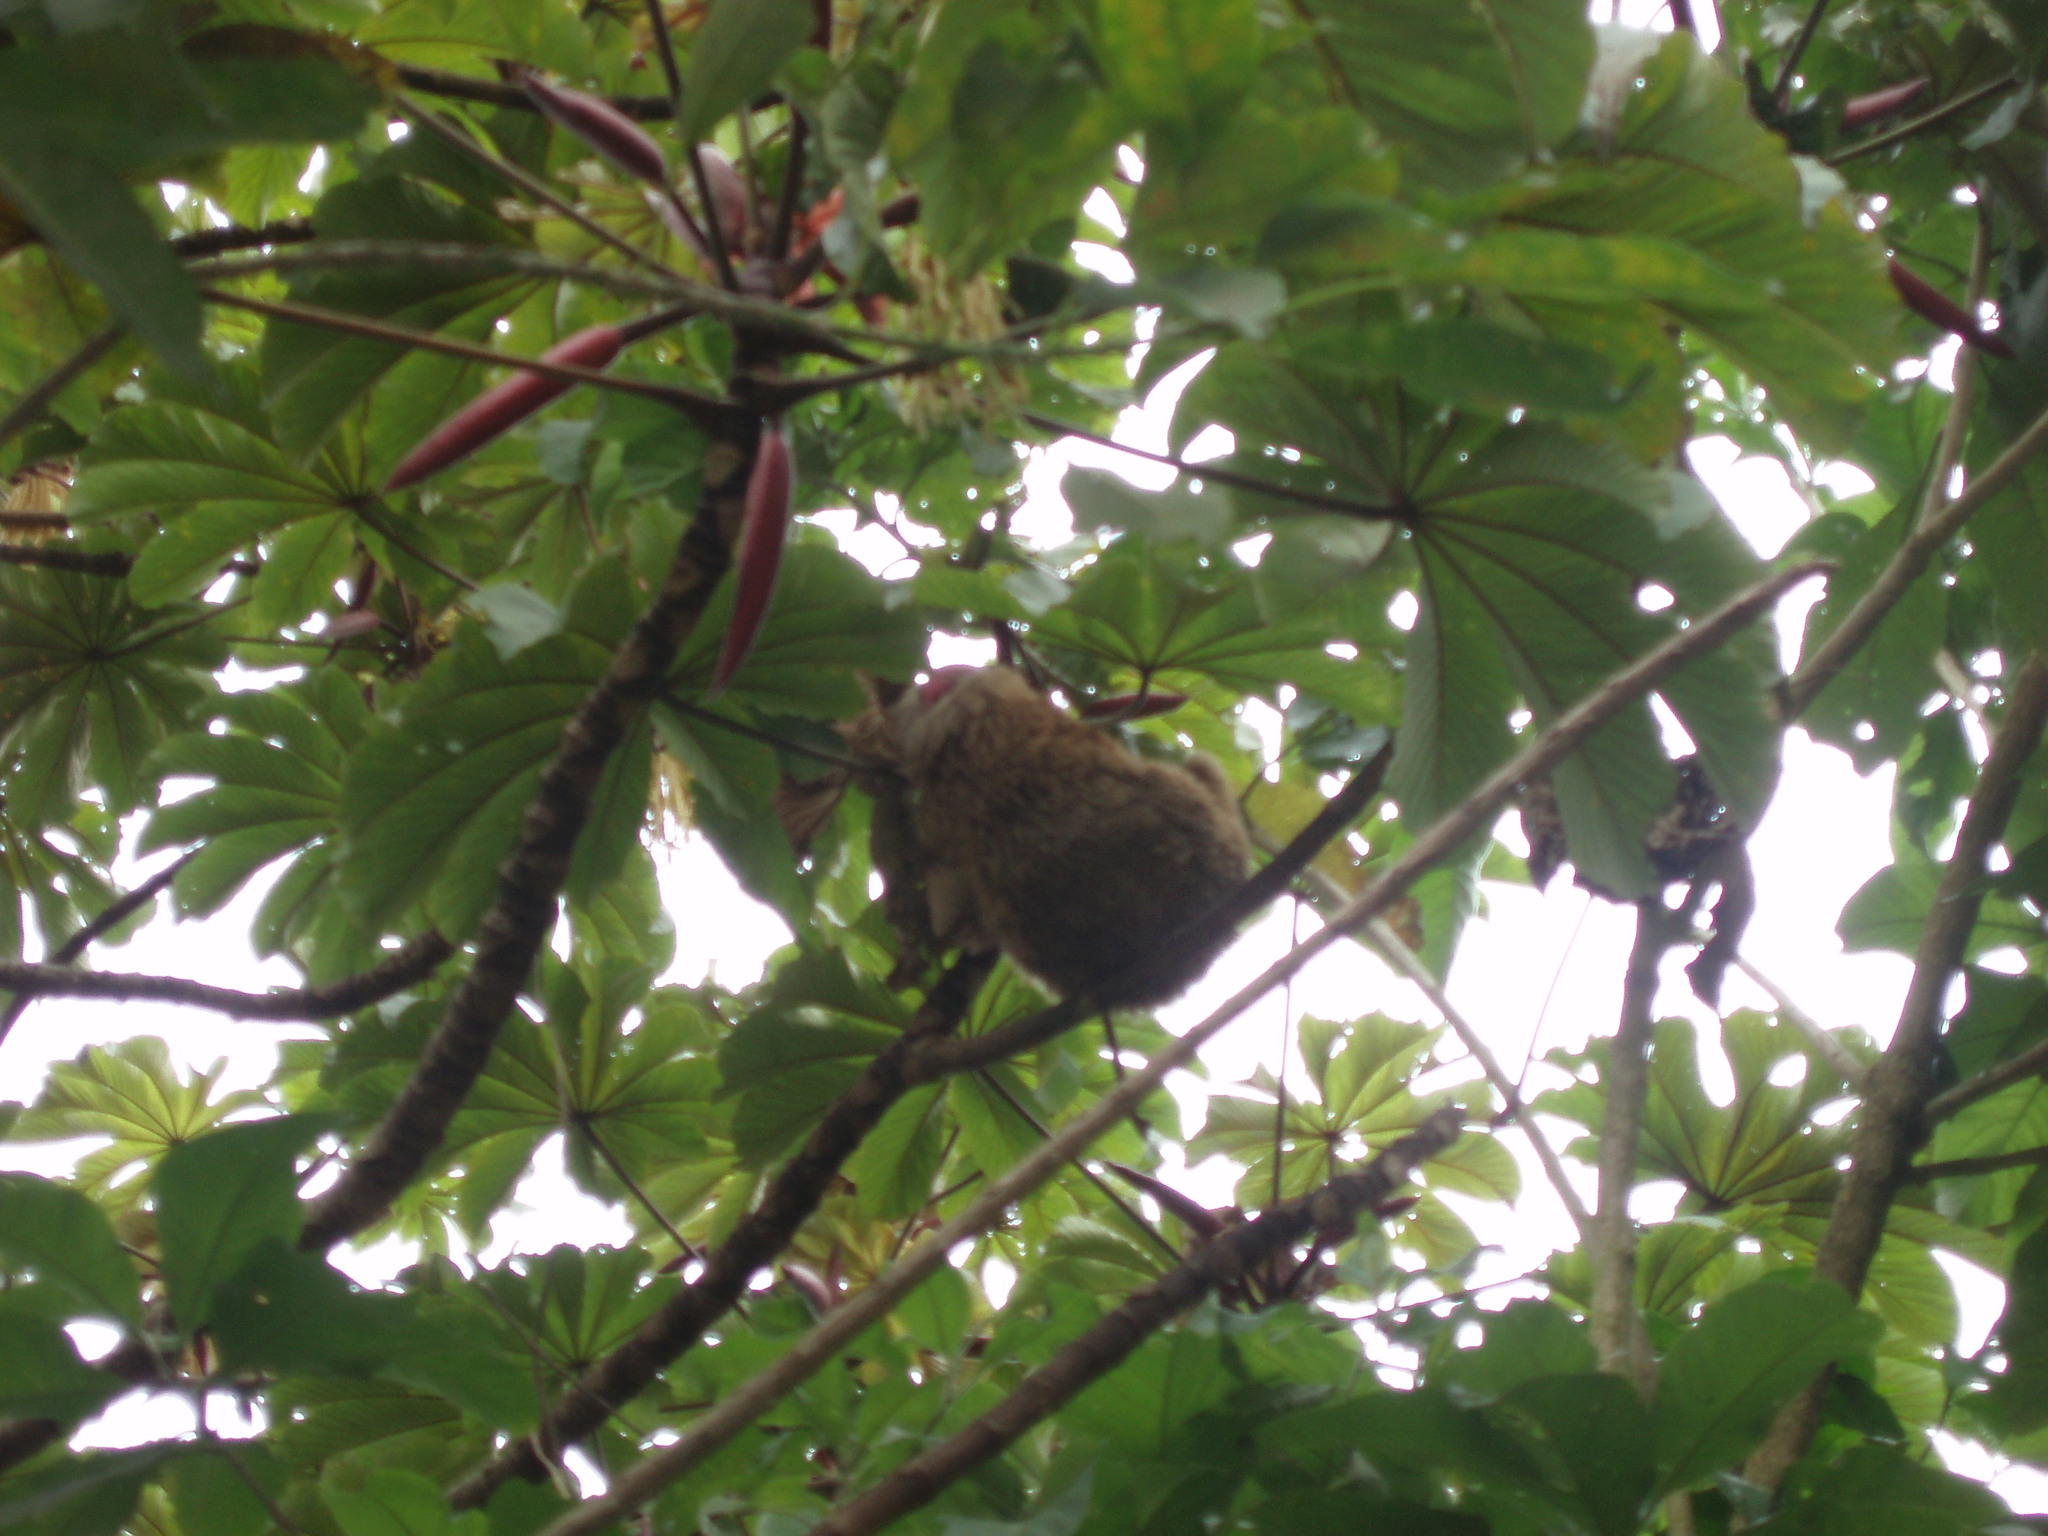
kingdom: Animalia
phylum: Chordata
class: Mammalia
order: Pilosa
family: Megalonychidae
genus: Choloepus
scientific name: Choloepus hoffmanni
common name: Hoffmann's two-toed sloth
